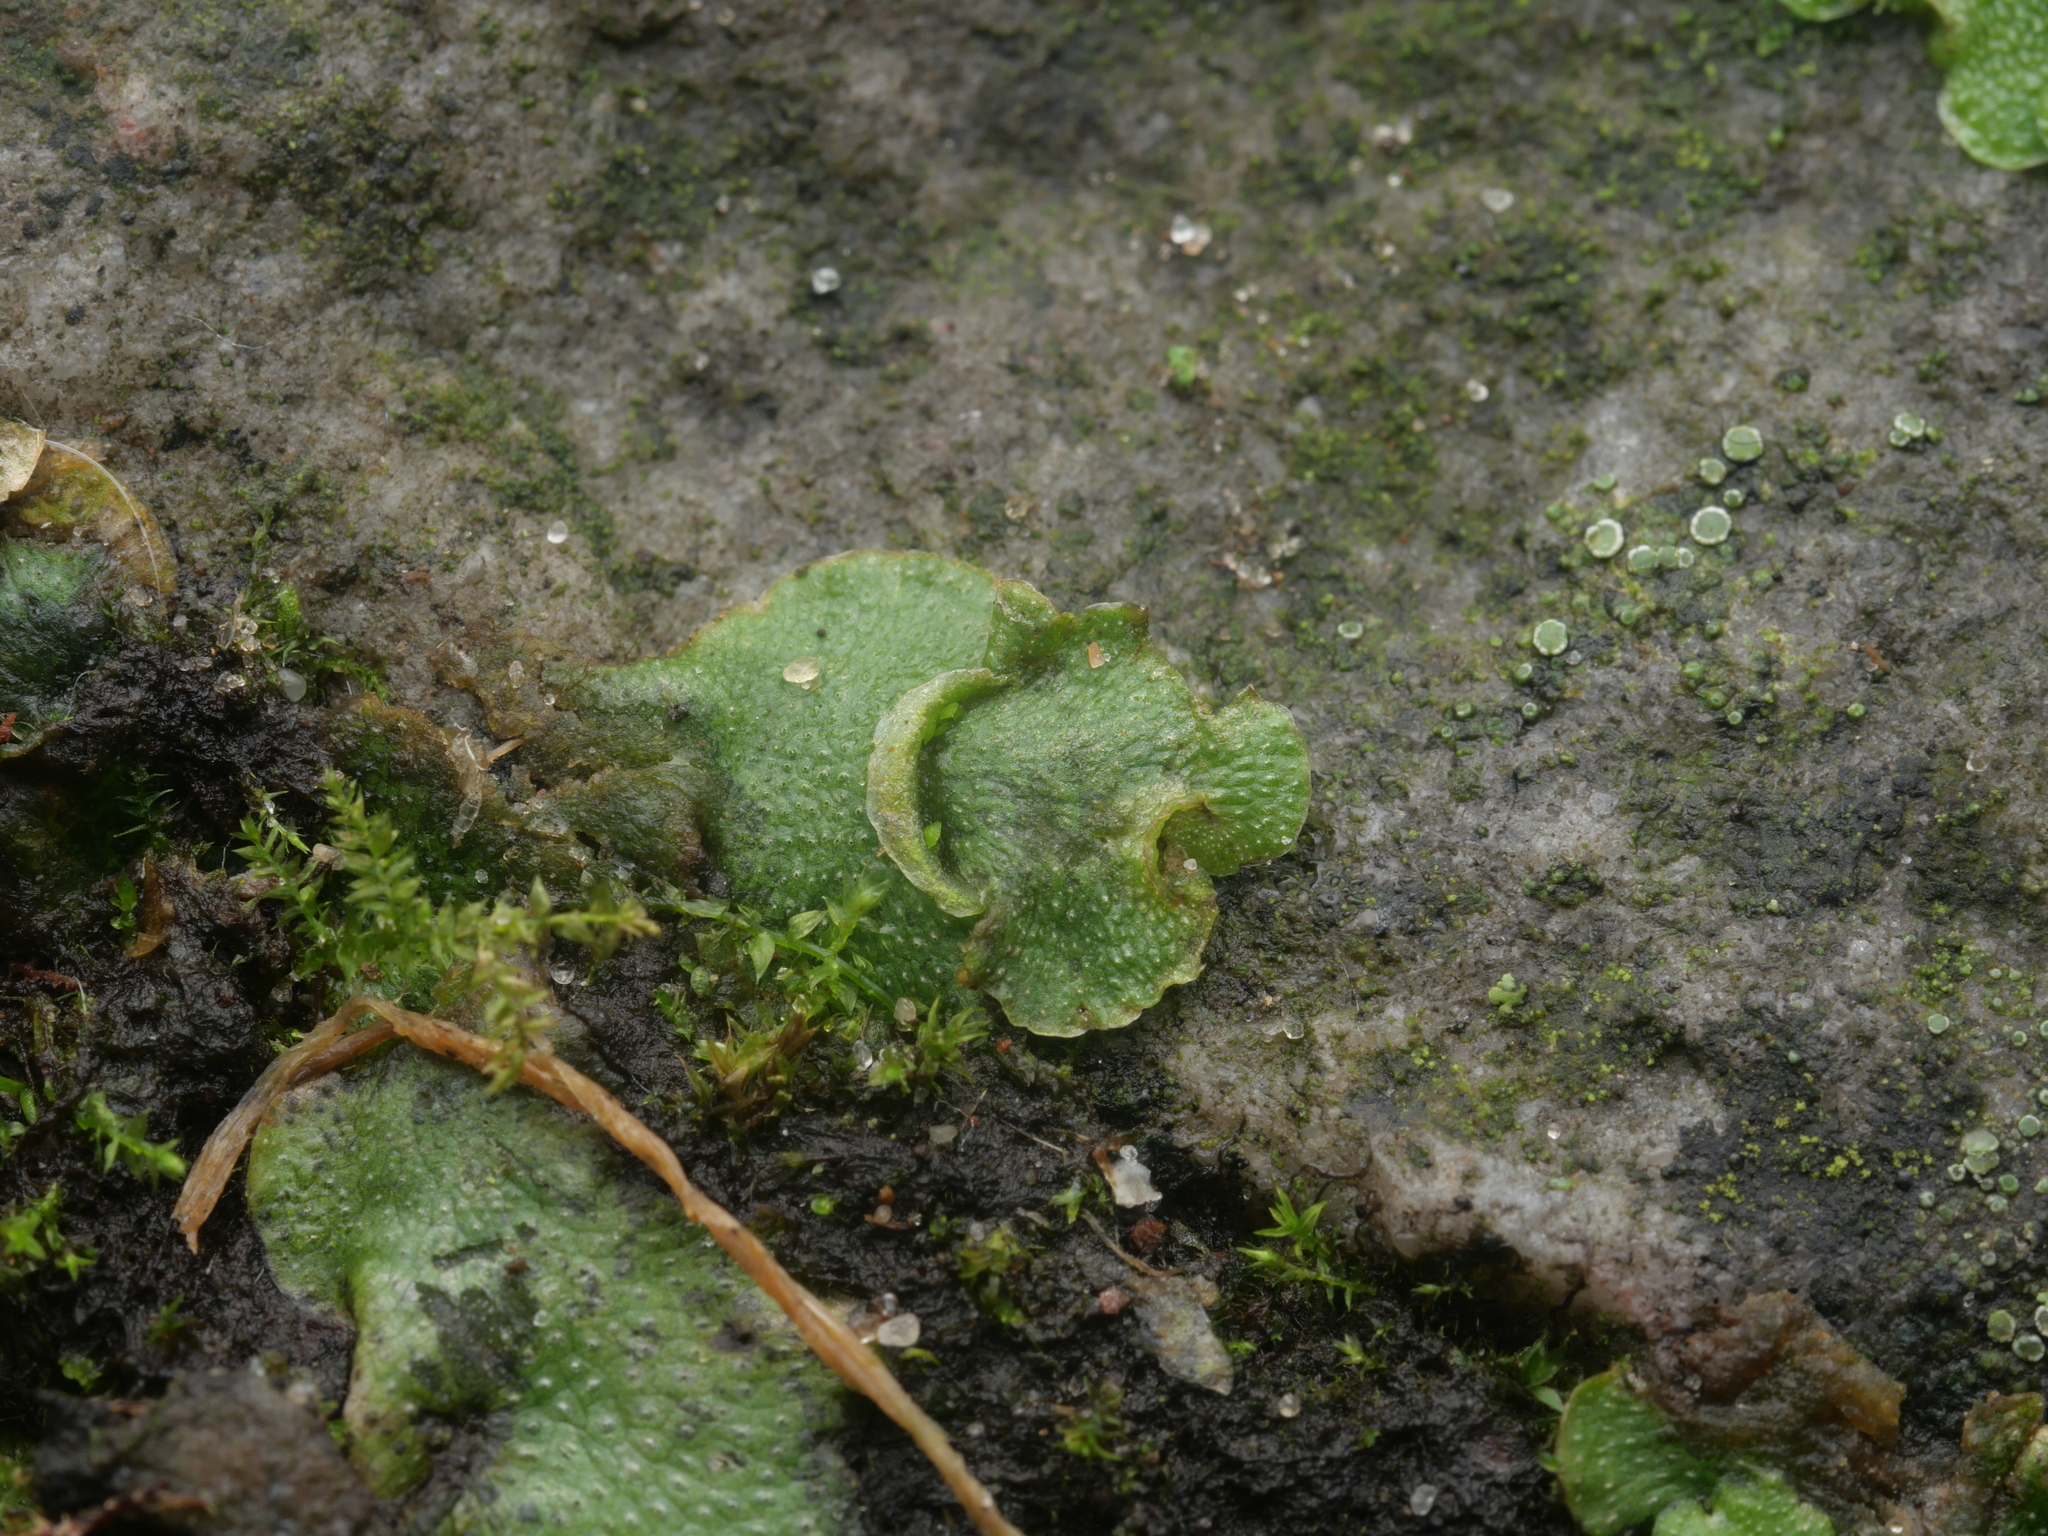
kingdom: Plantae
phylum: Marchantiophyta
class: Marchantiopsida
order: Lunulariales
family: Lunulariaceae
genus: Lunularia
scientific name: Lunularia cruciata
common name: Crescent-cup liverwort
